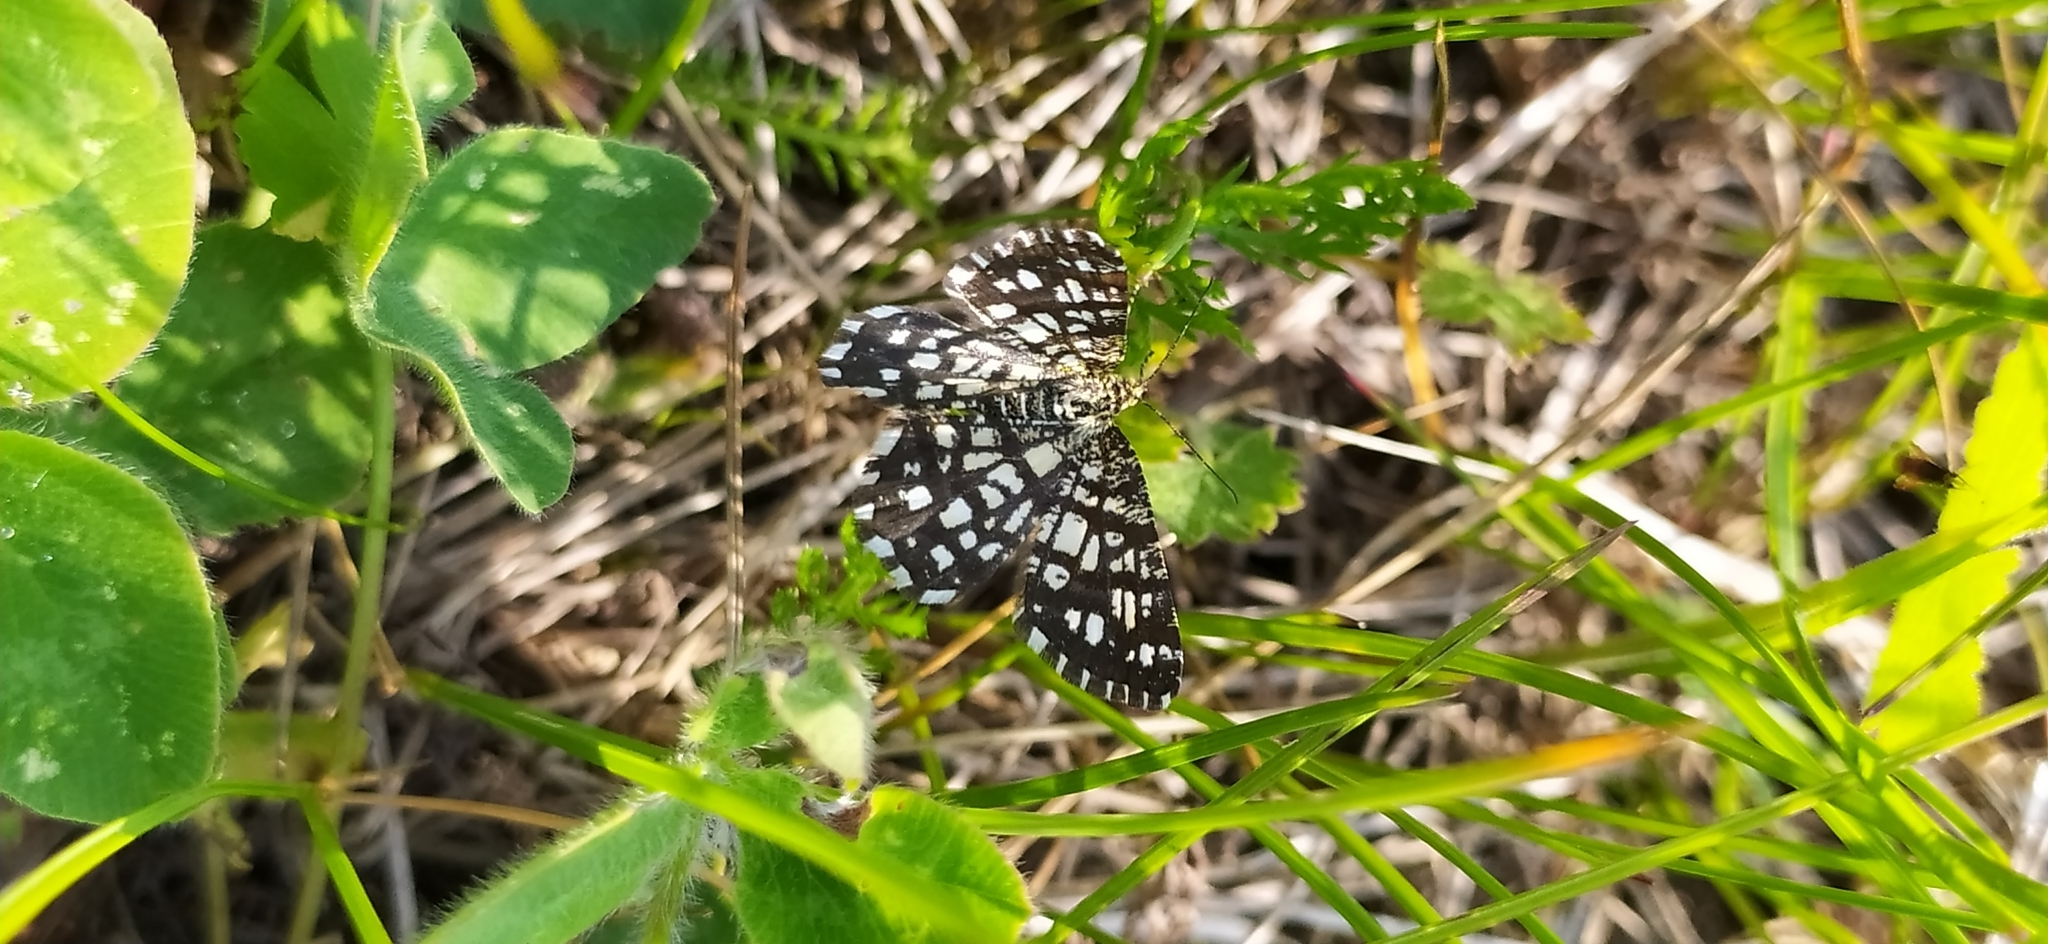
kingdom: Animalia
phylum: Arthropoda
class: Insecta
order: Lepidoptera
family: Geometridae
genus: Chiasmia
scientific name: Chiasmia clathrata
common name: Latticed heath
